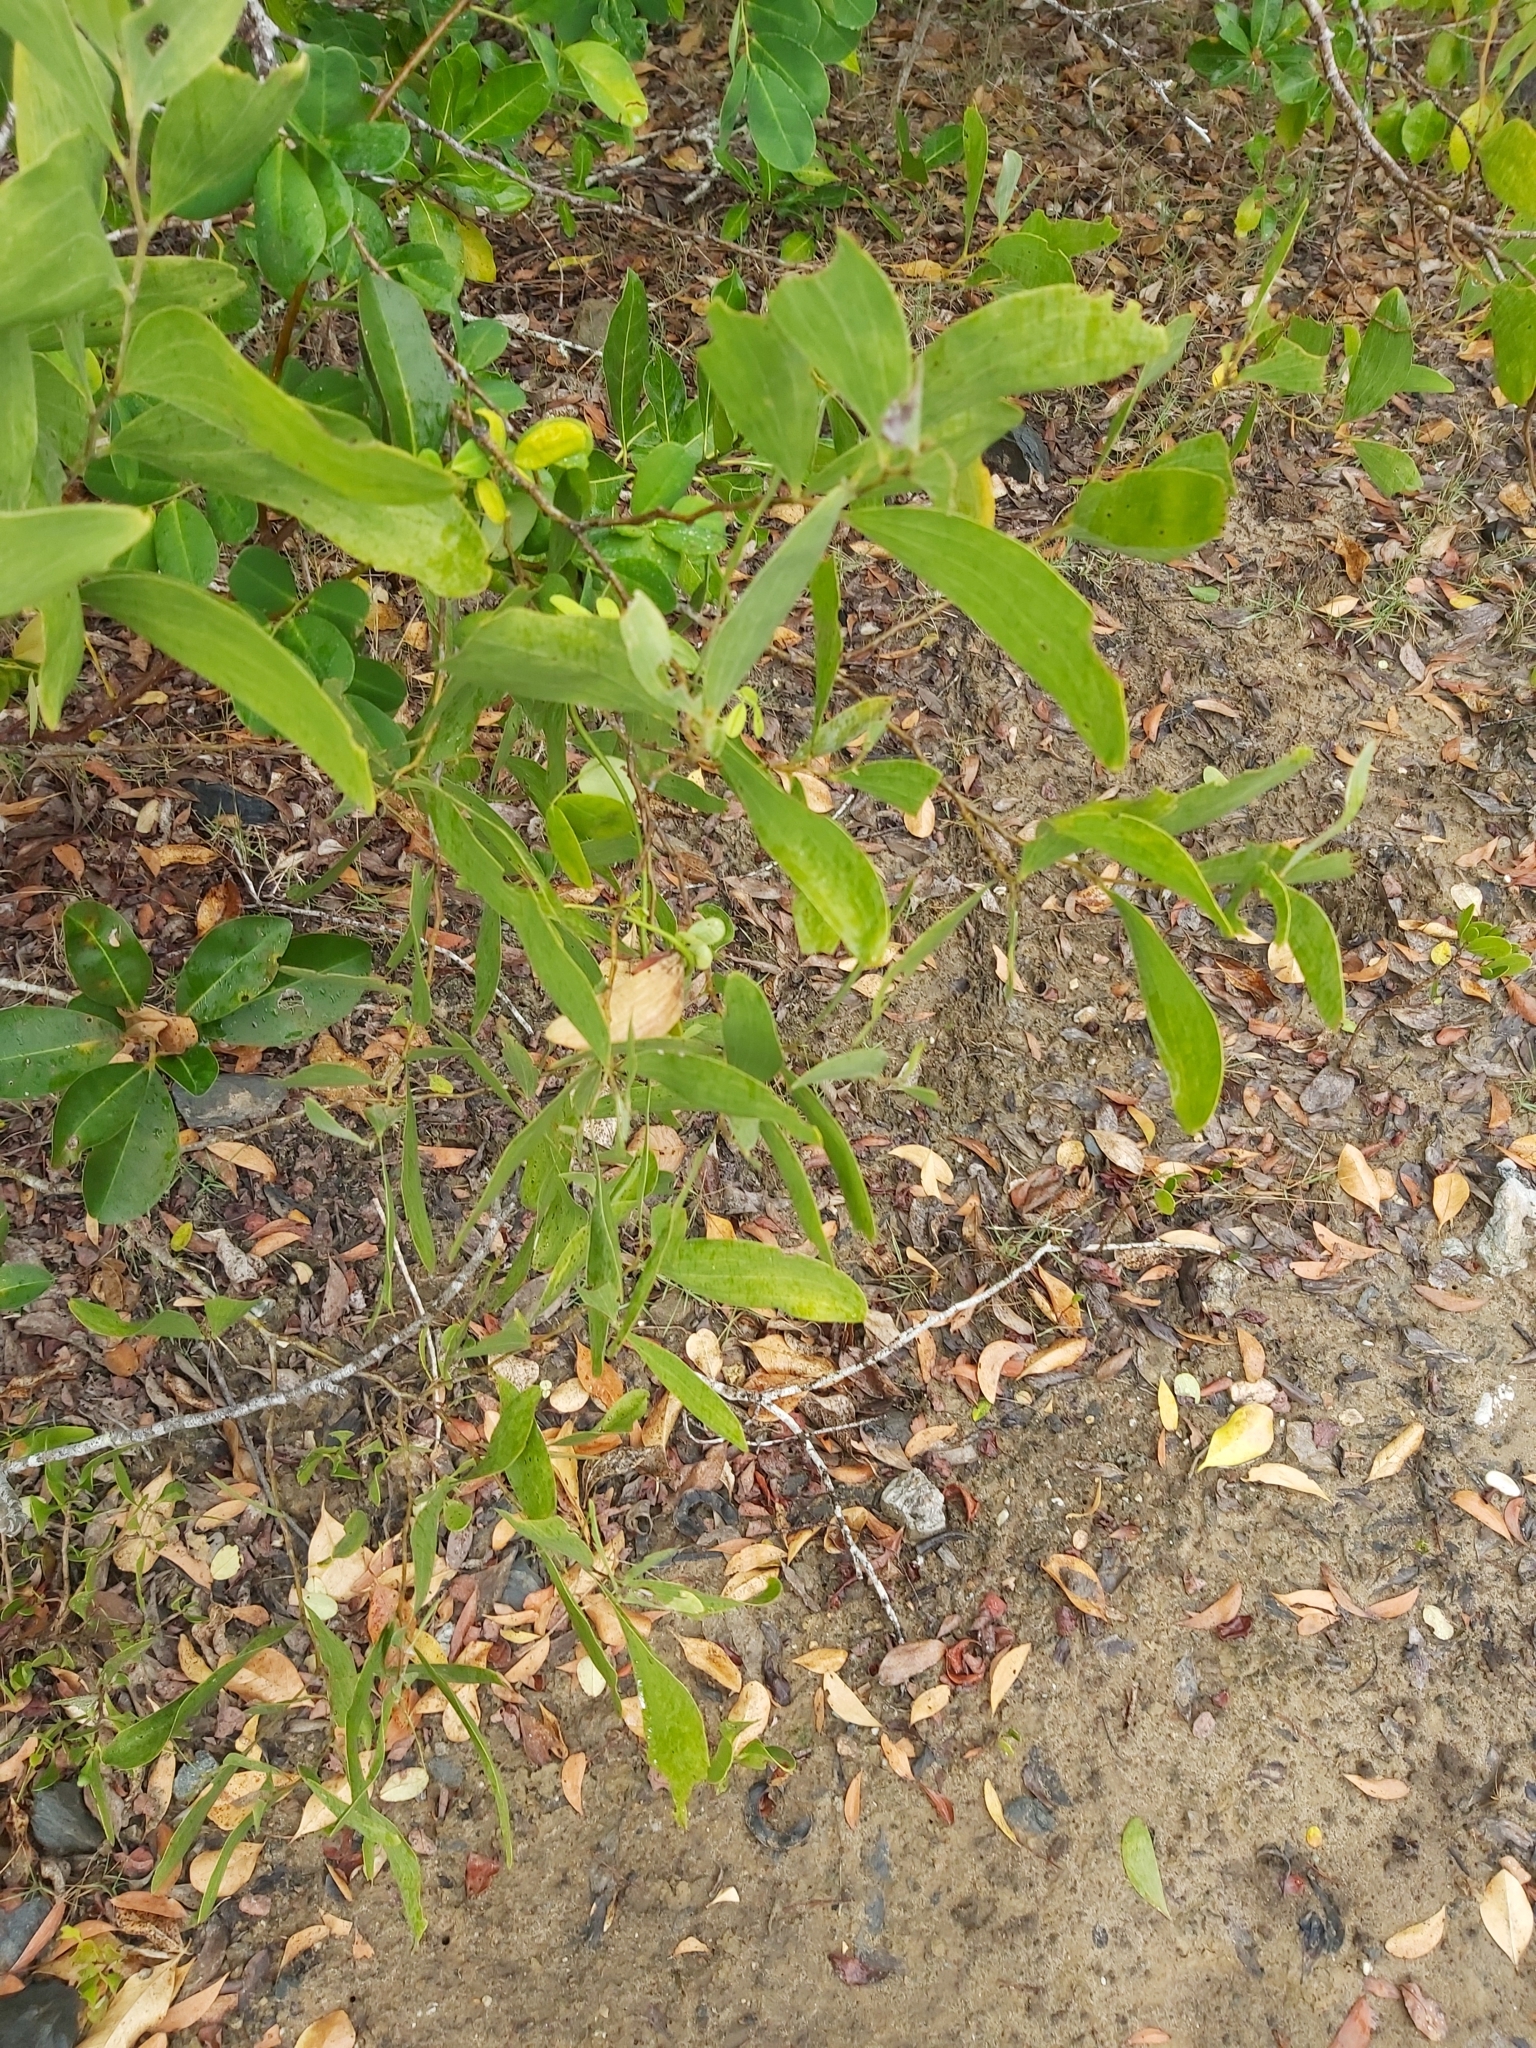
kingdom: Plantae
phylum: Tracheophyta
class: Magnoliopsida
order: Fabales
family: Fabaceae
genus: Acacia
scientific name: Acacia oraria
